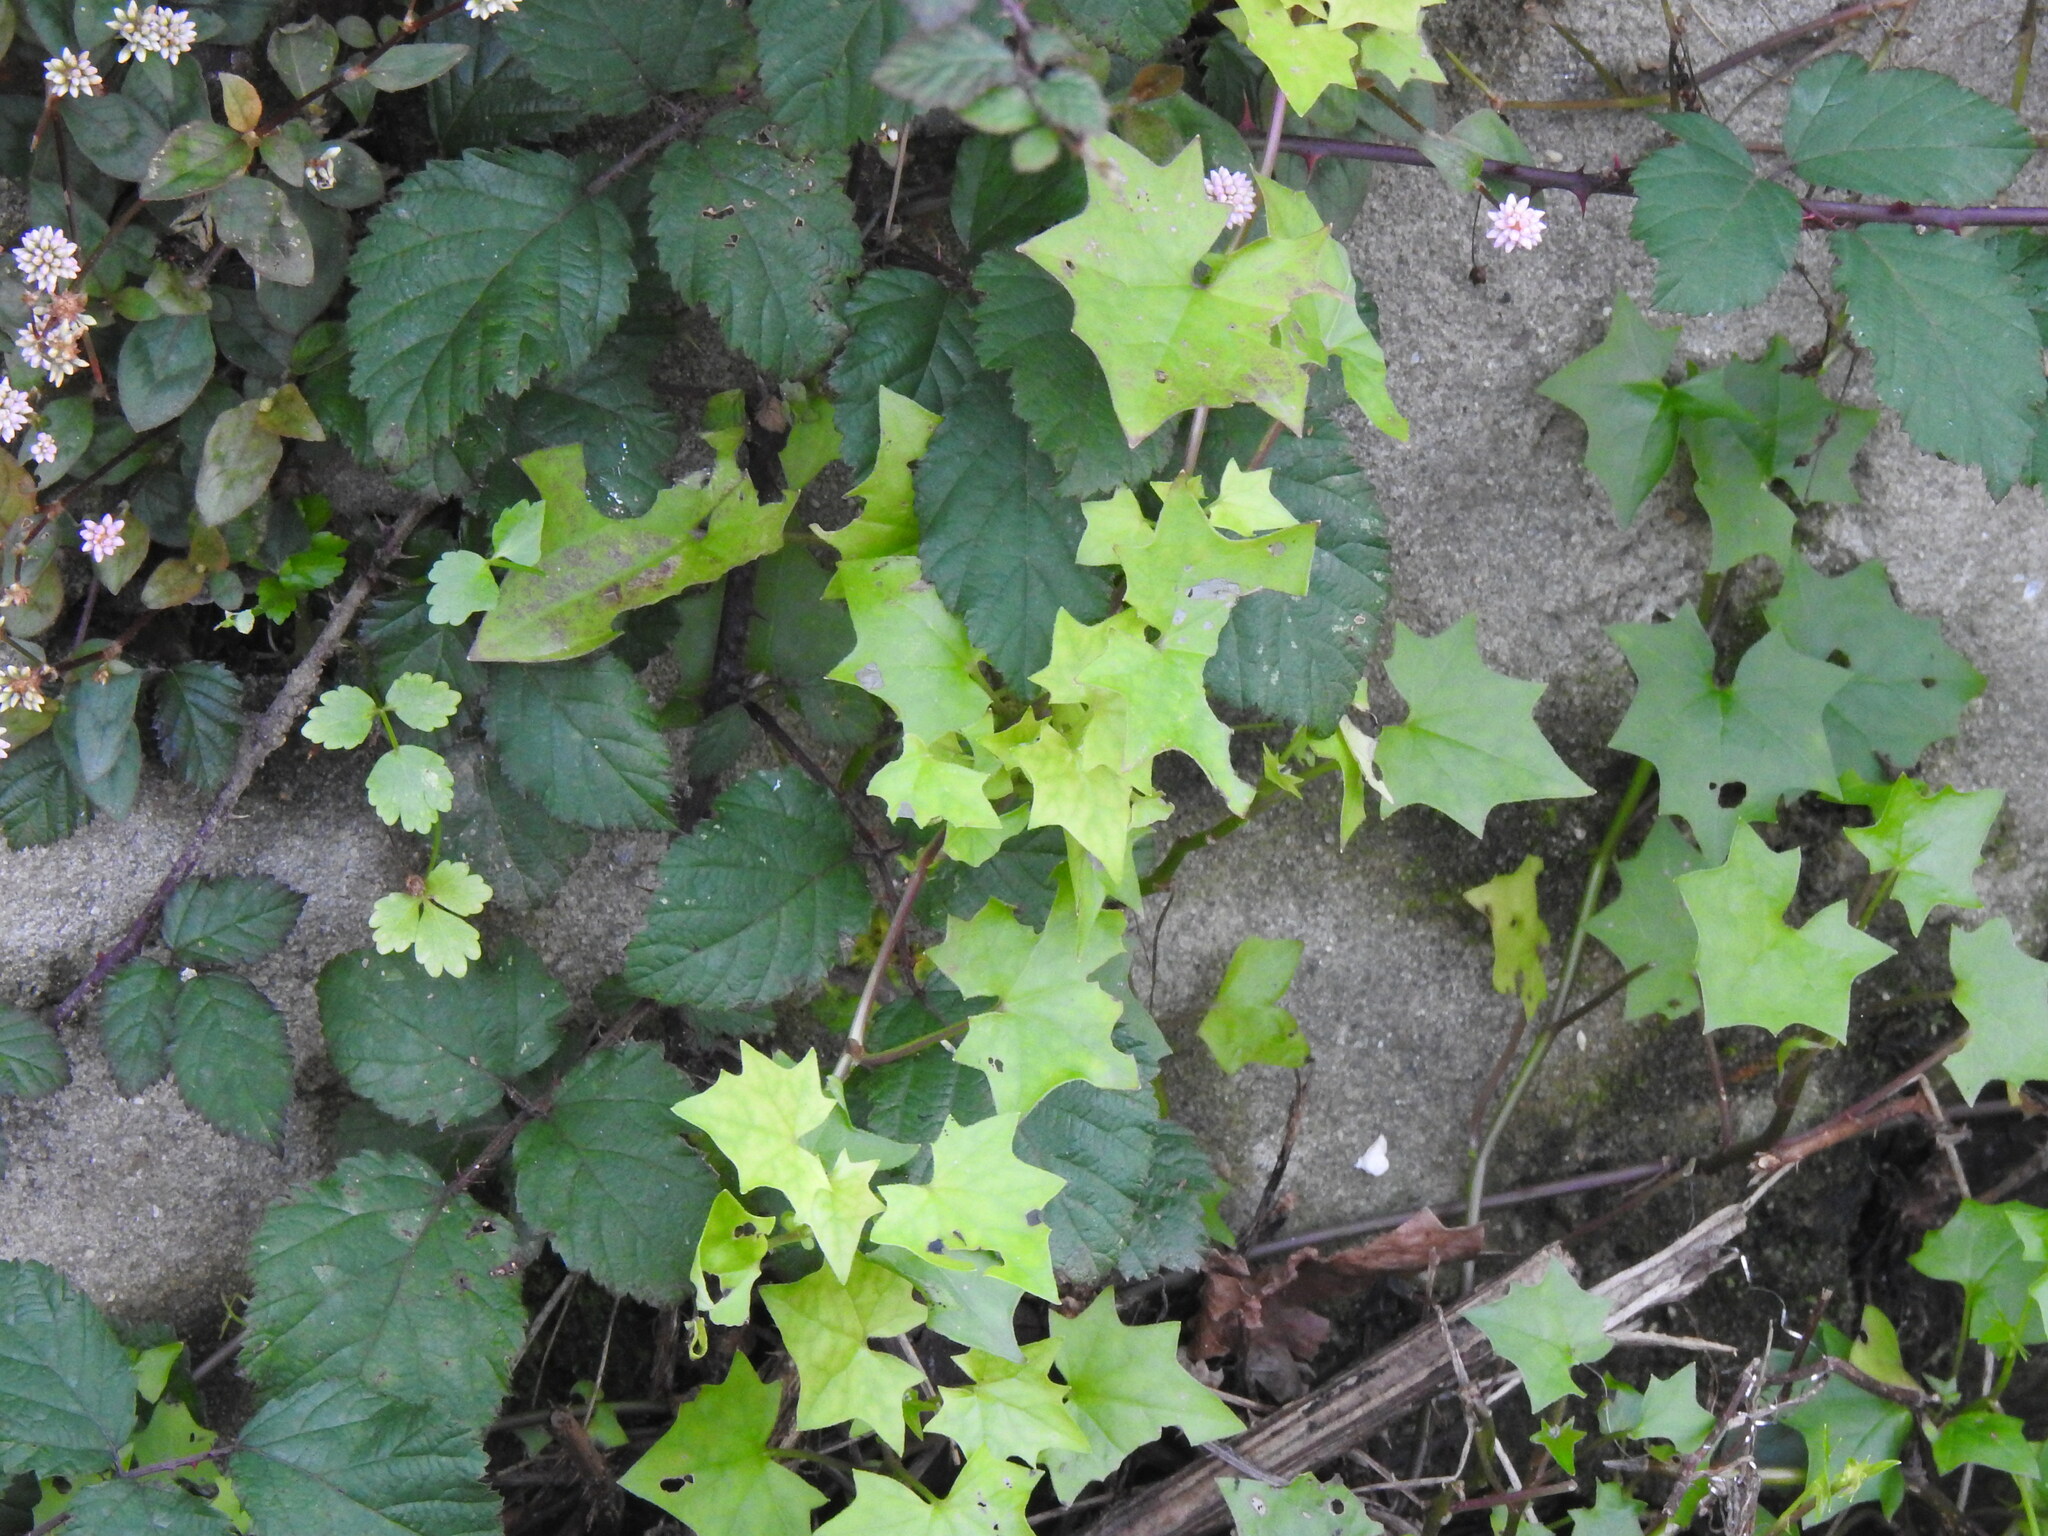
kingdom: Plantae
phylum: Tracheophyta
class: Magnoliopsida
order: Asterales
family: Asteraceae
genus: Delairea
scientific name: Delairea odorata
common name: Cape-ivy
